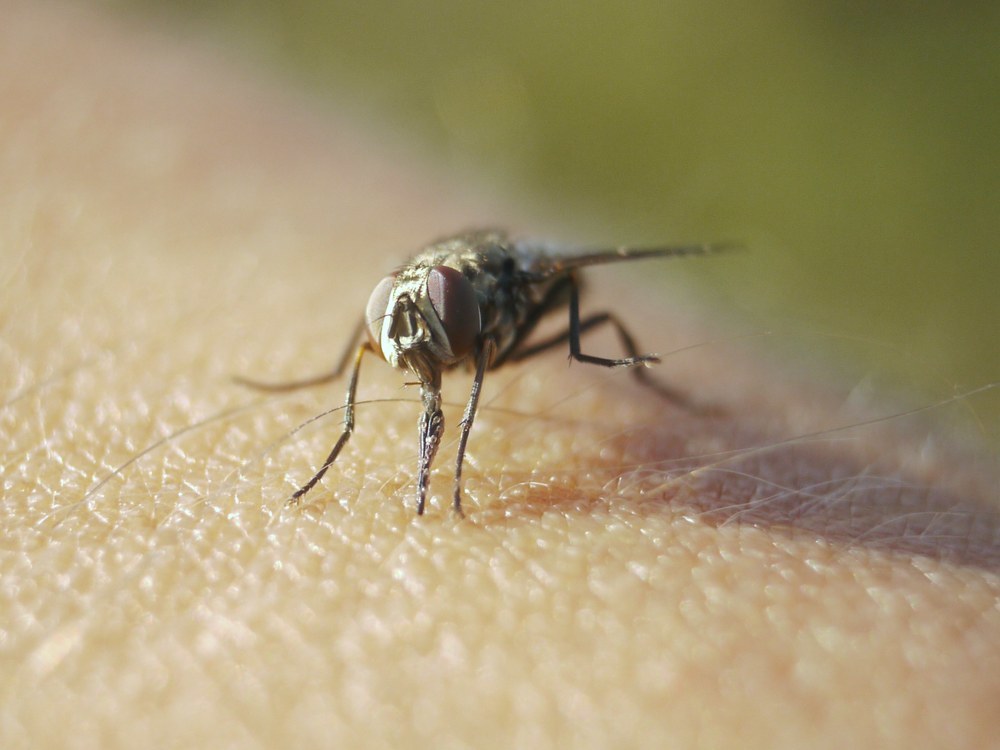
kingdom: Animalia
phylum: Arthropoda
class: Insecta
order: Diptera
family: Muscidae
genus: Stomoxys
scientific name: Stomoxys calcitrans
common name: Stable fly
